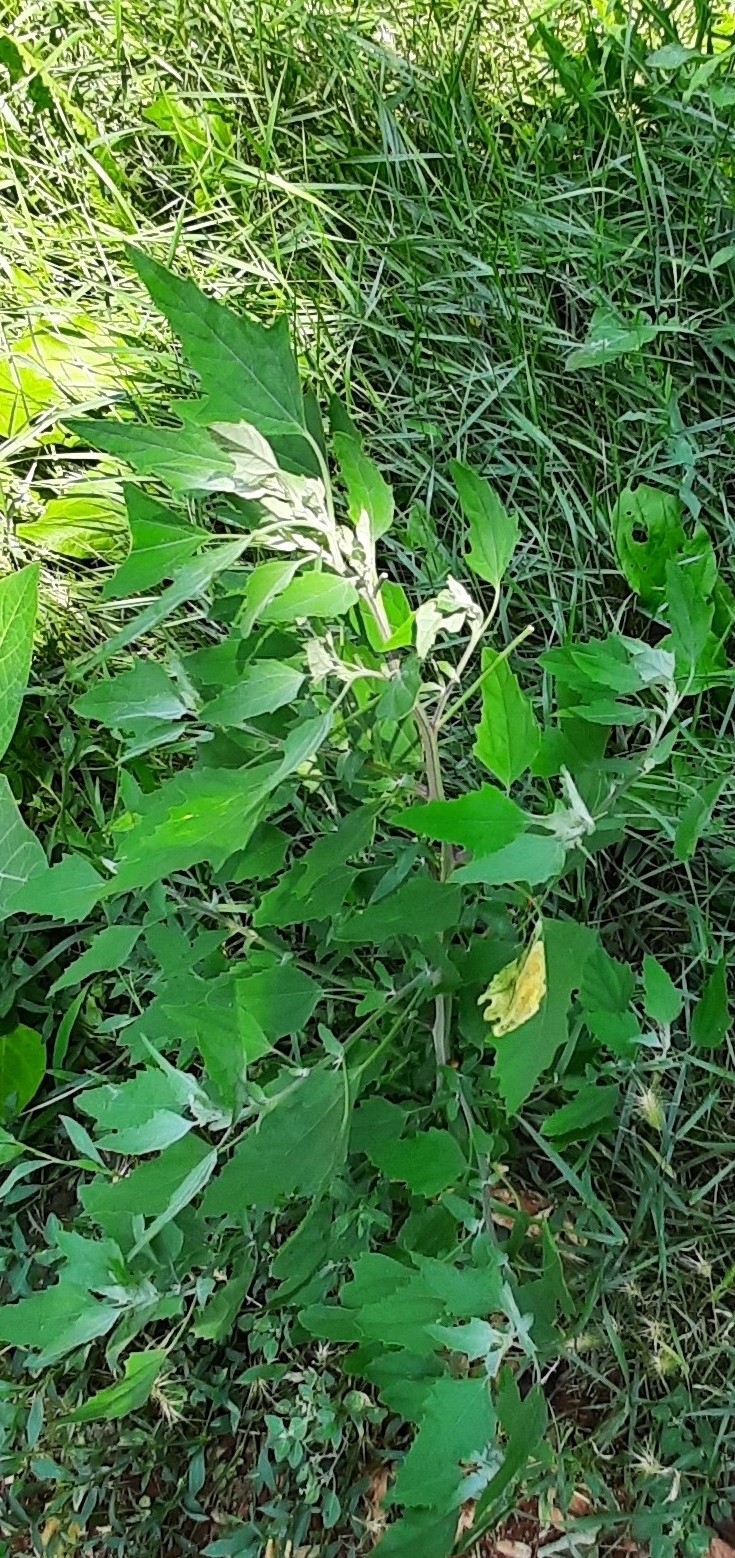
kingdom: Plantae
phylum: Tracheophyta
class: Magnoliopsida
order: Caryophyllales
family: Amaranthaceae
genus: Chenopodium
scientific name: Chenopodium album
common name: Fat-hen
